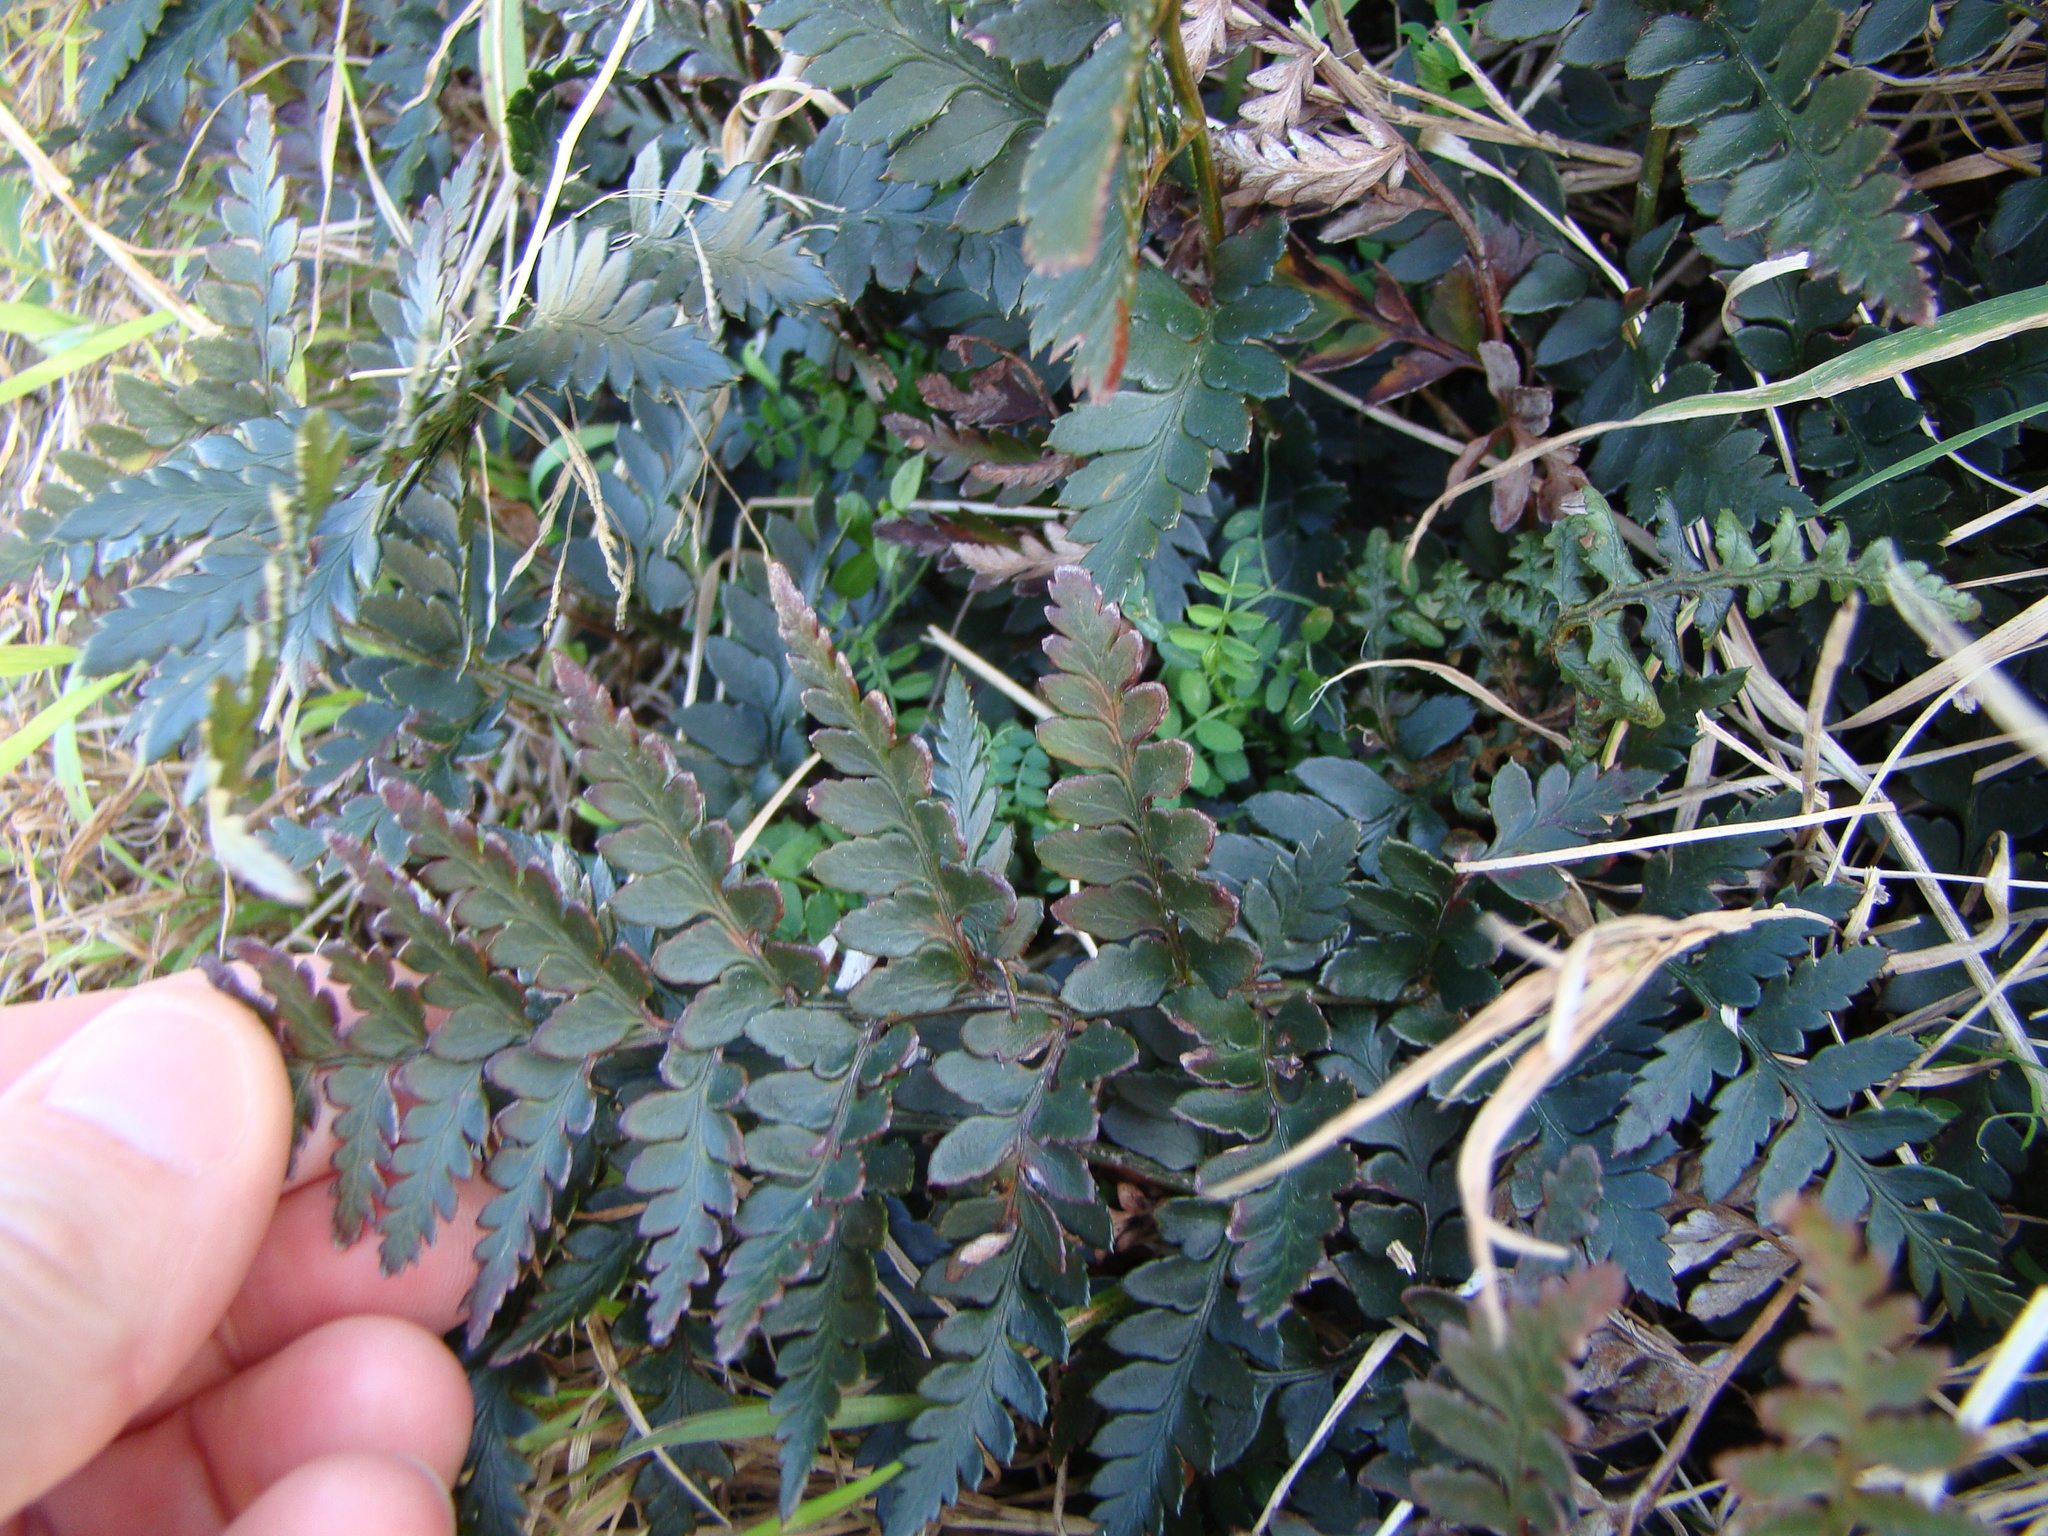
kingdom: Plantae
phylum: Tracheophyta
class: Polypodiopsida
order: Polypodiales
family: Dryopteridaceae
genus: Polystichum
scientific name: Polystichum oculatum
